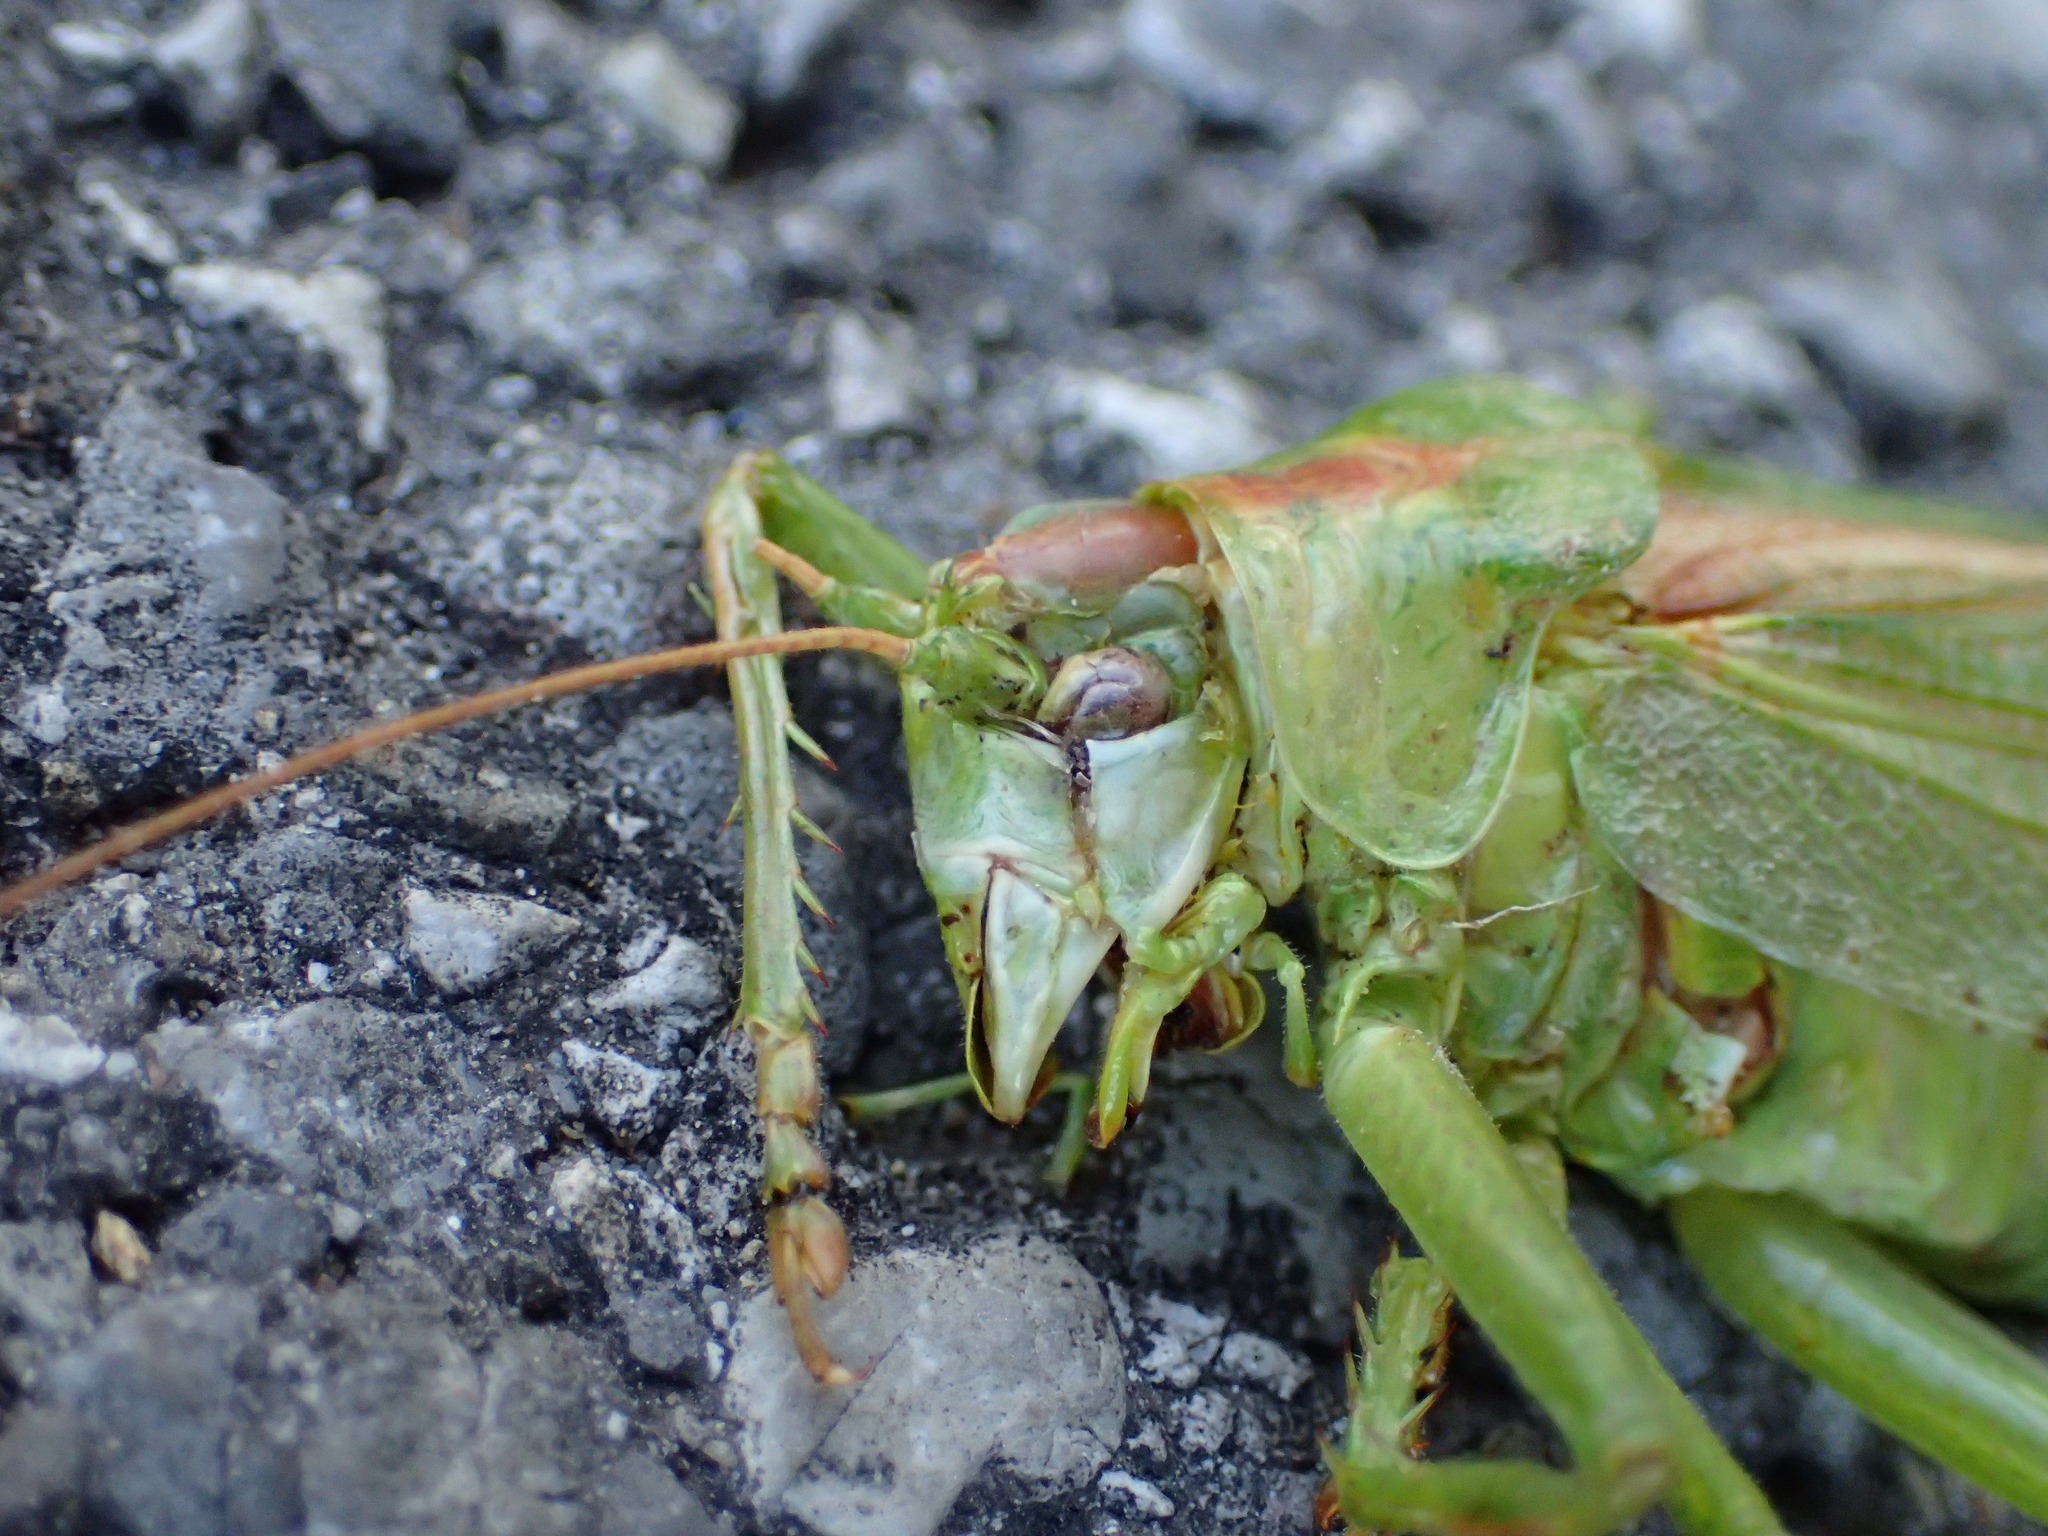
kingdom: Animalia
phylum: Arthropoda
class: Insecta
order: Orthoptera
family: Tettigoniidae
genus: Tettigonia
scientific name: Tettigonia viridissima
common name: Great green bush-cricket
